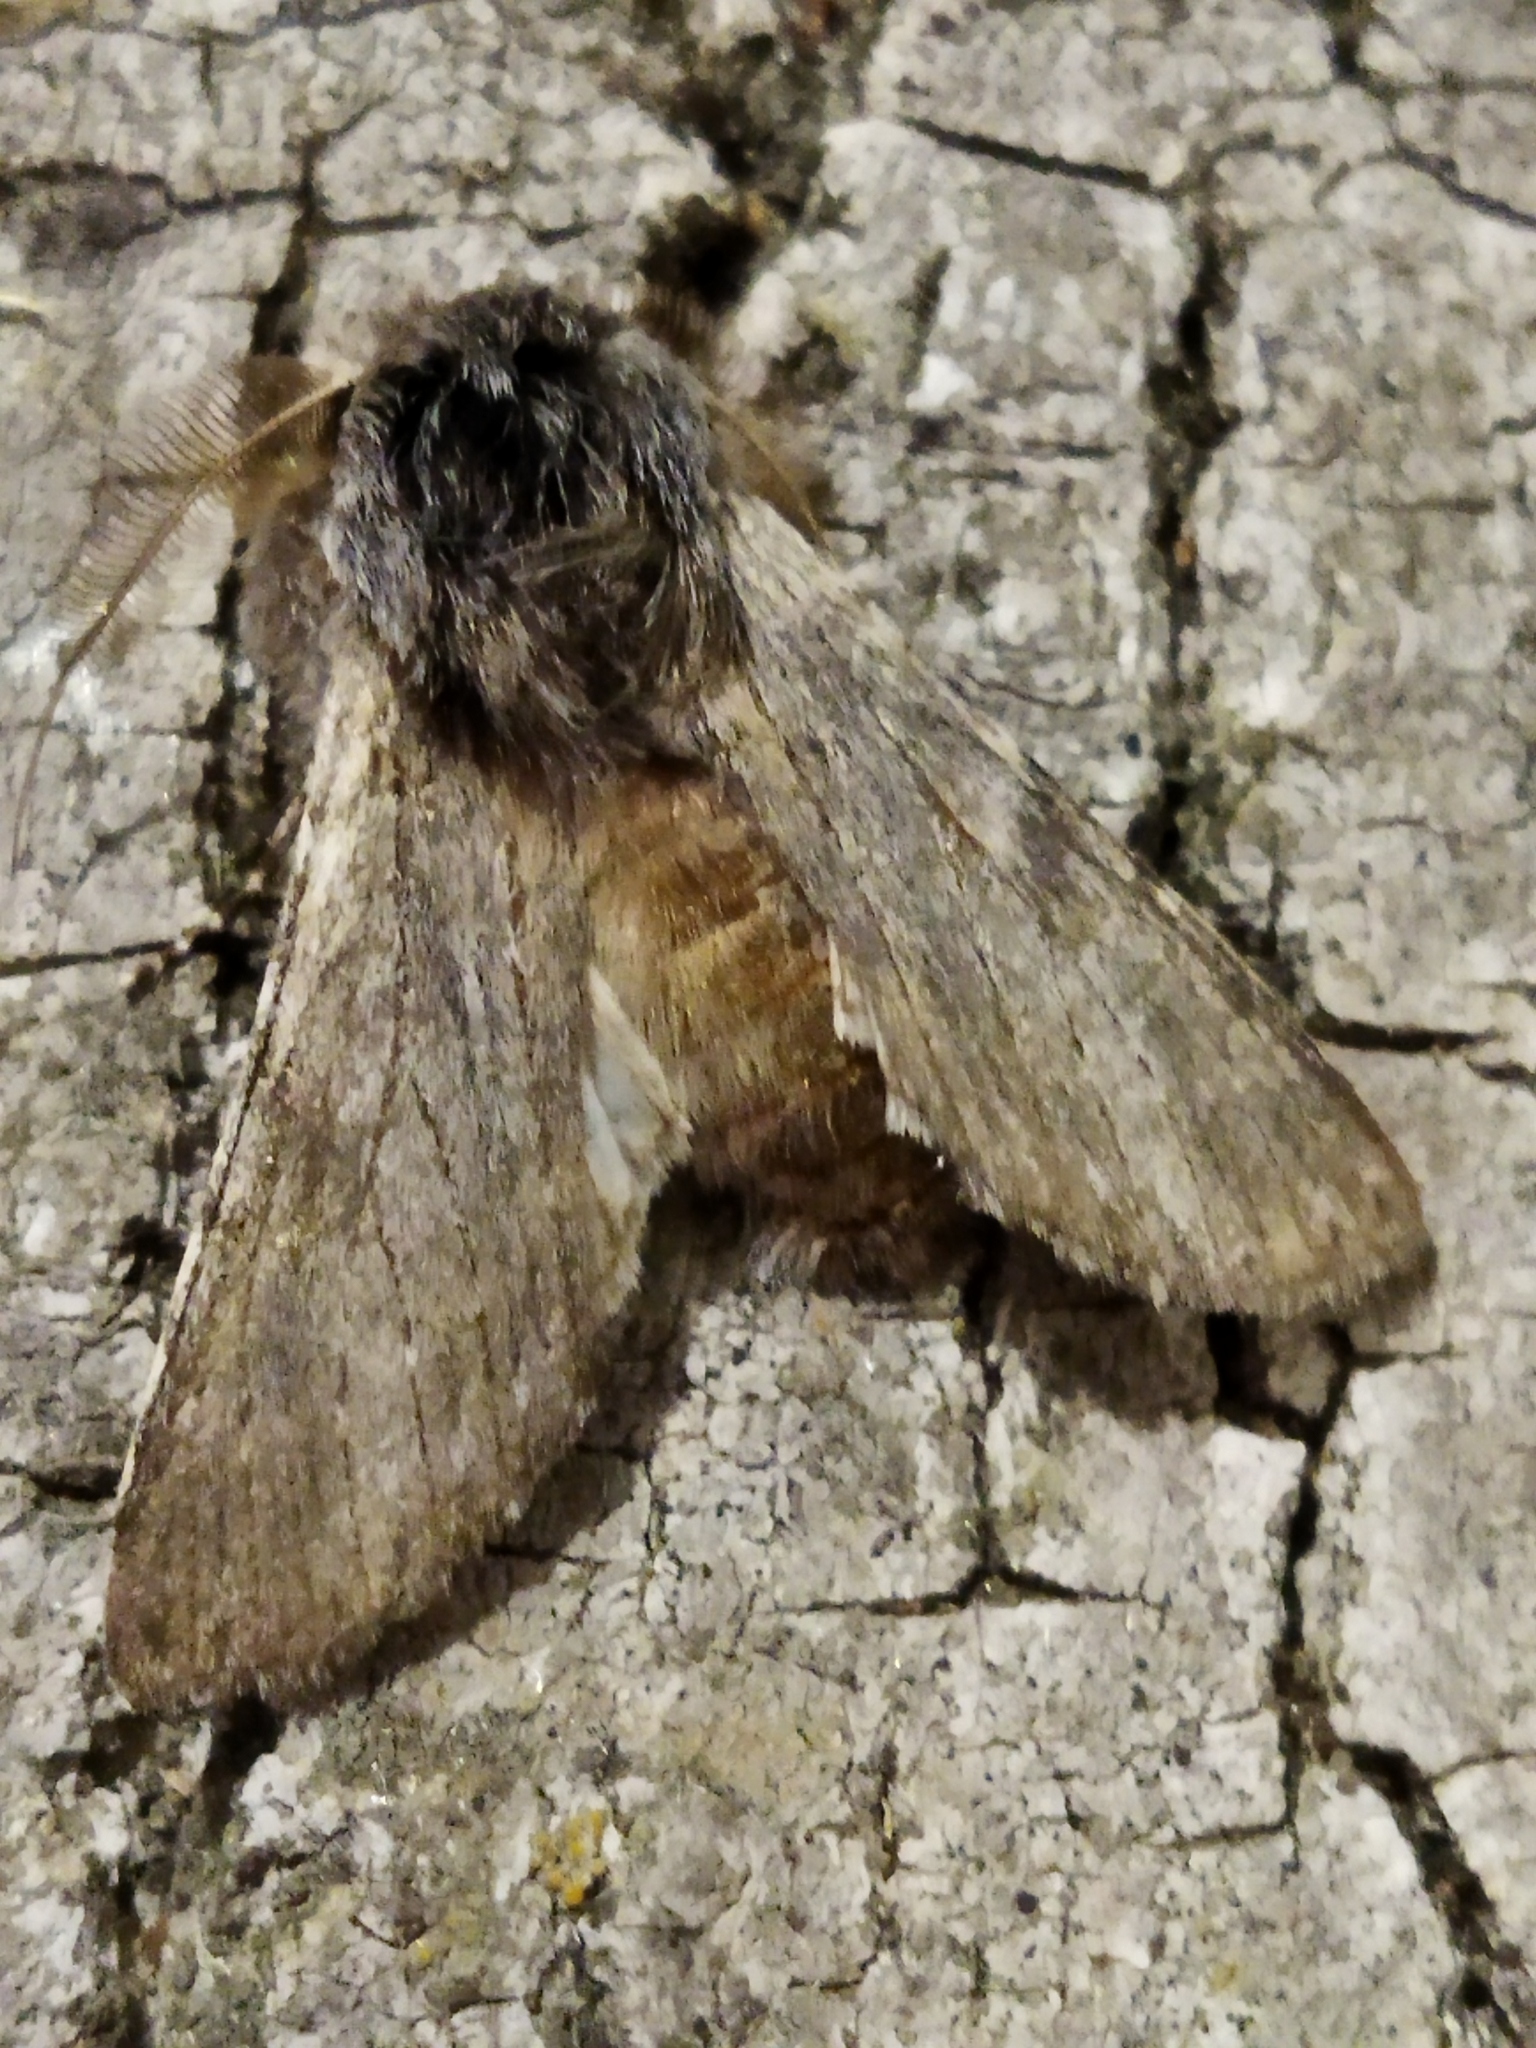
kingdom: Animalia
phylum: Arthropoda
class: Insecta
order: Lepidoptera
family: Notodontidae
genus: Dicranura
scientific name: Dicranura ulmi
